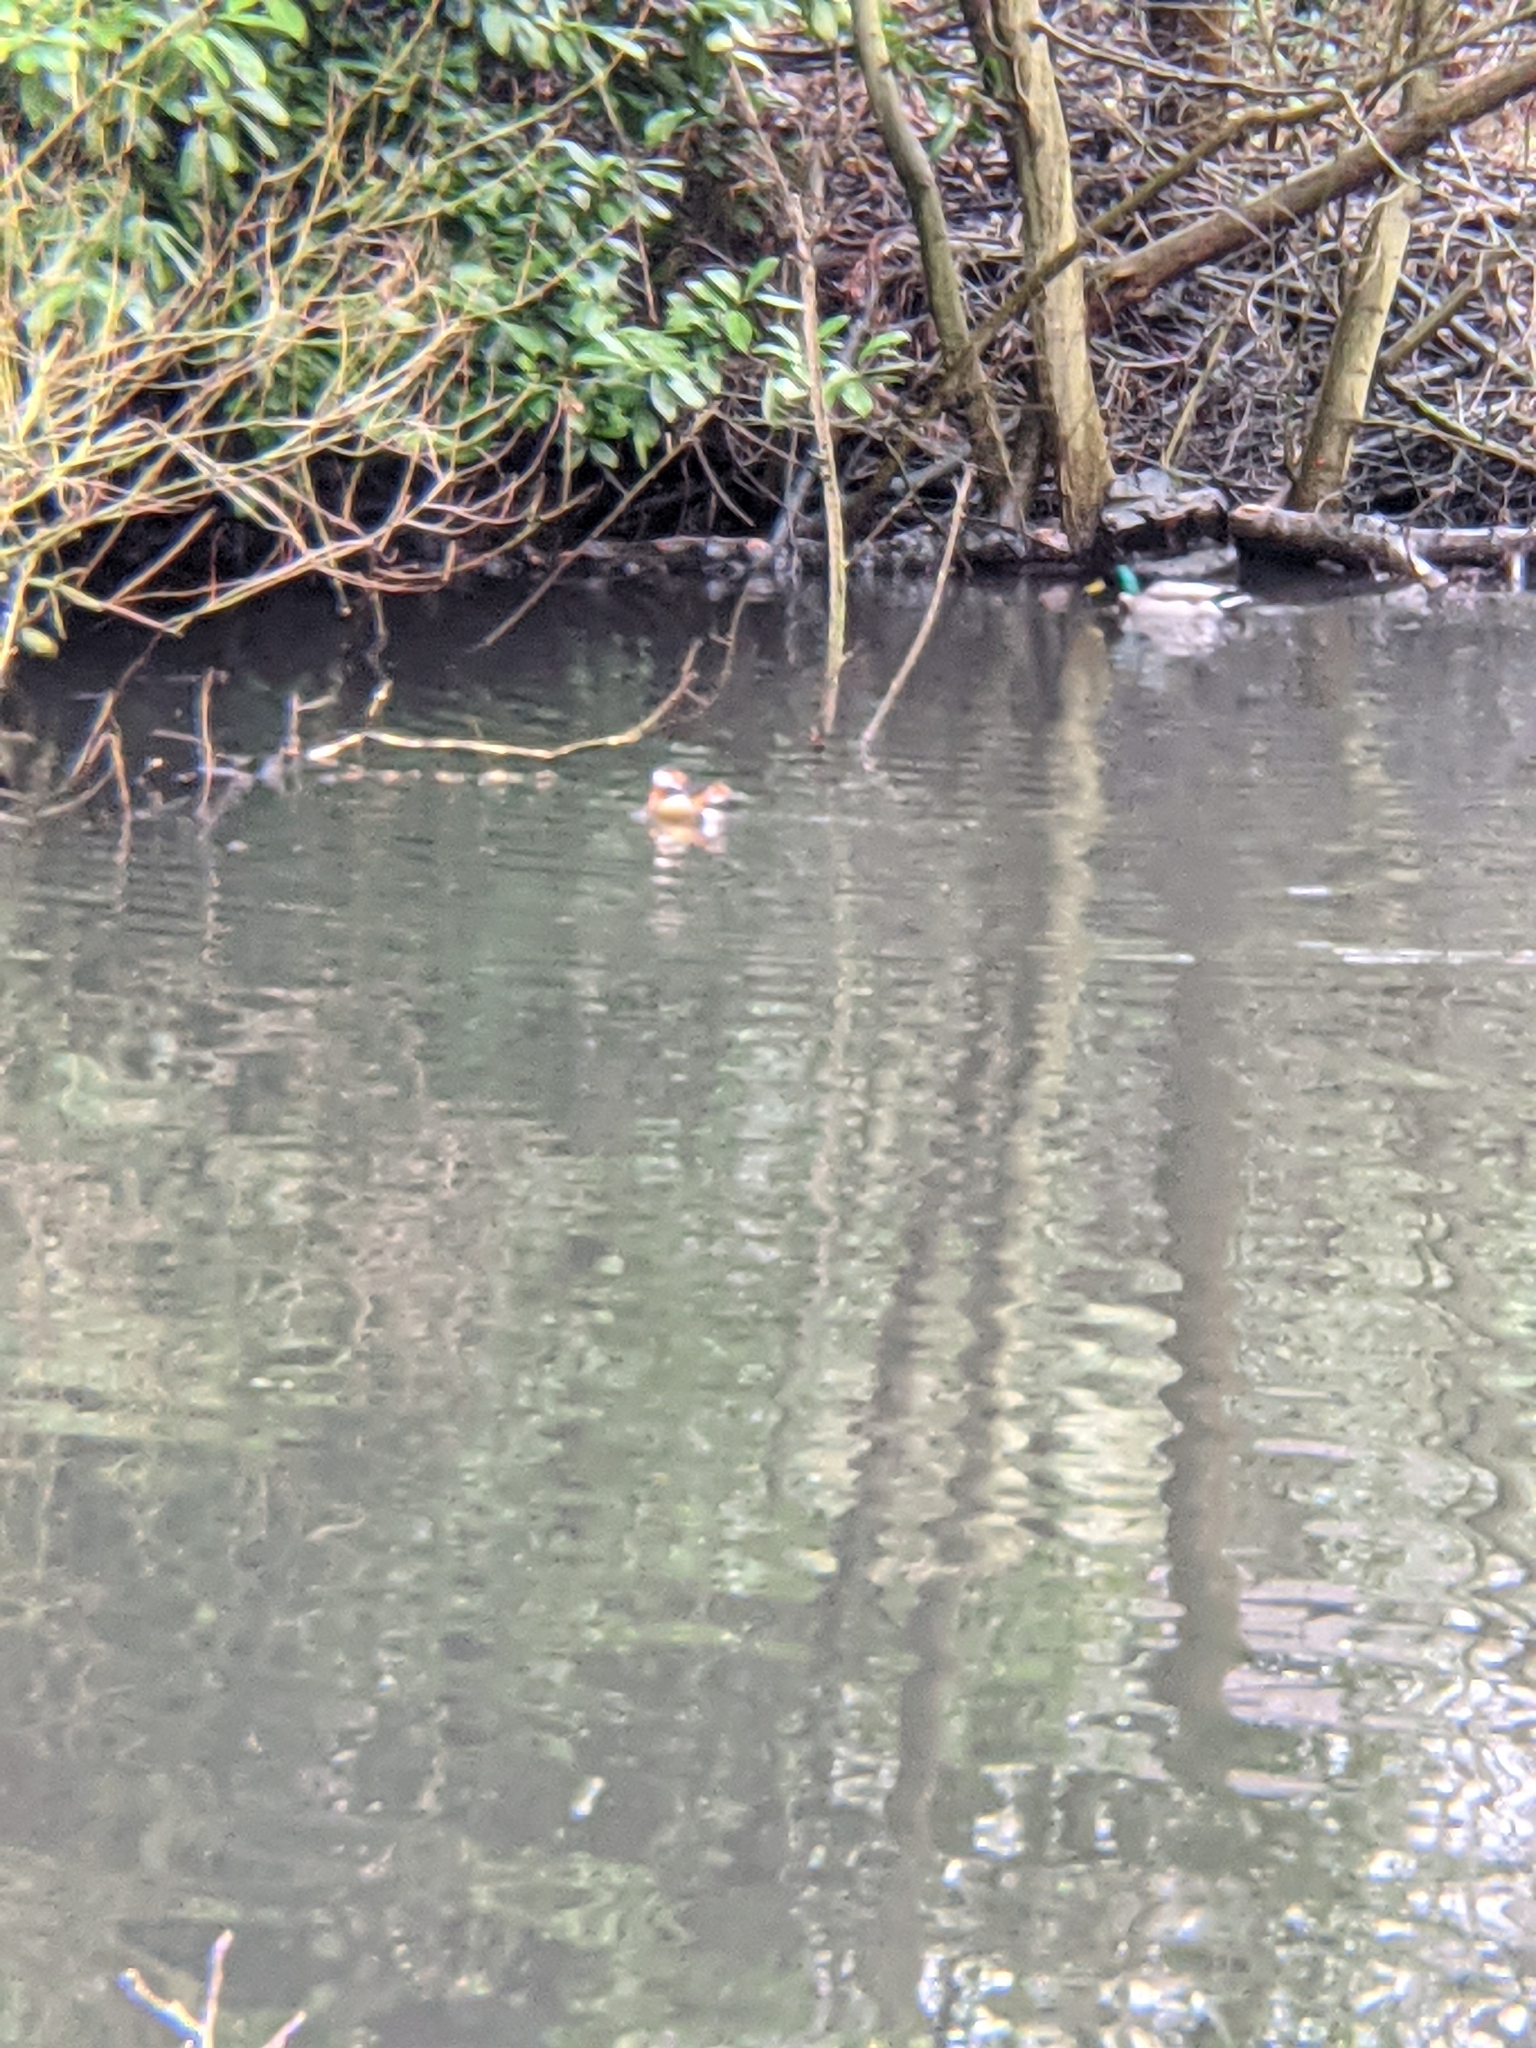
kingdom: Animalia
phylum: Chordata
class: Aves
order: Anseriformes
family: Anatidae
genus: Aix
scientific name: Aix galericulata
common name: Mandarin duck
